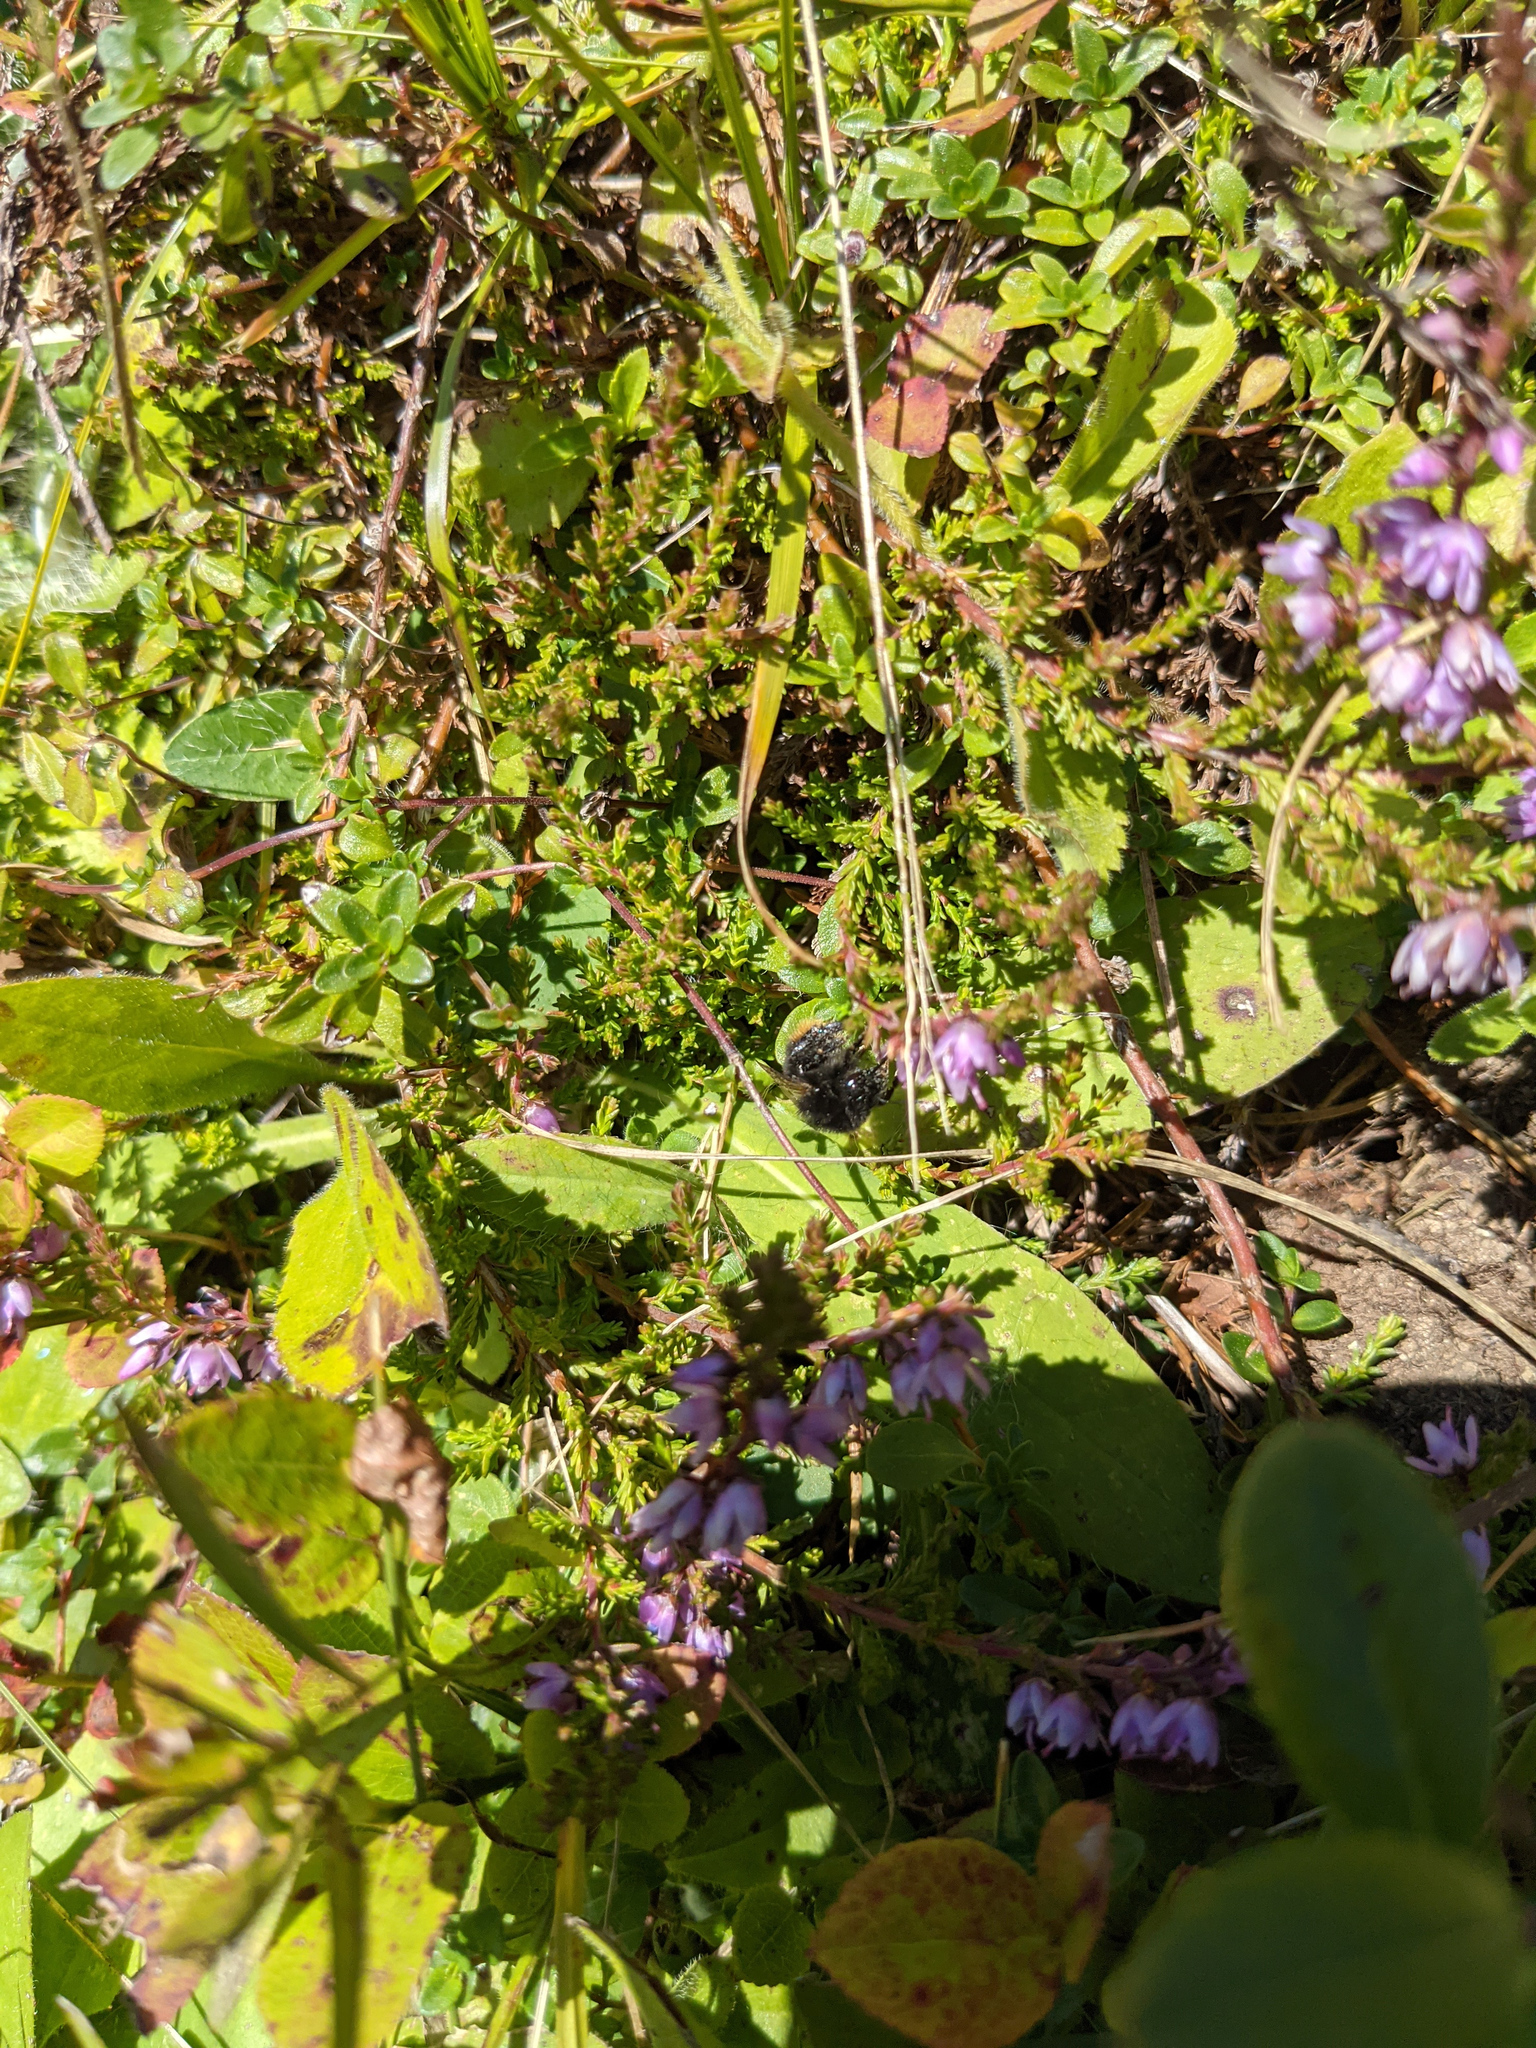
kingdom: Plantae
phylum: Tracheophyta
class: Magnoliopsida
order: Ericales
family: Ericaceae
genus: Calluna
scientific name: Calluna vulgaris
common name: Heather
